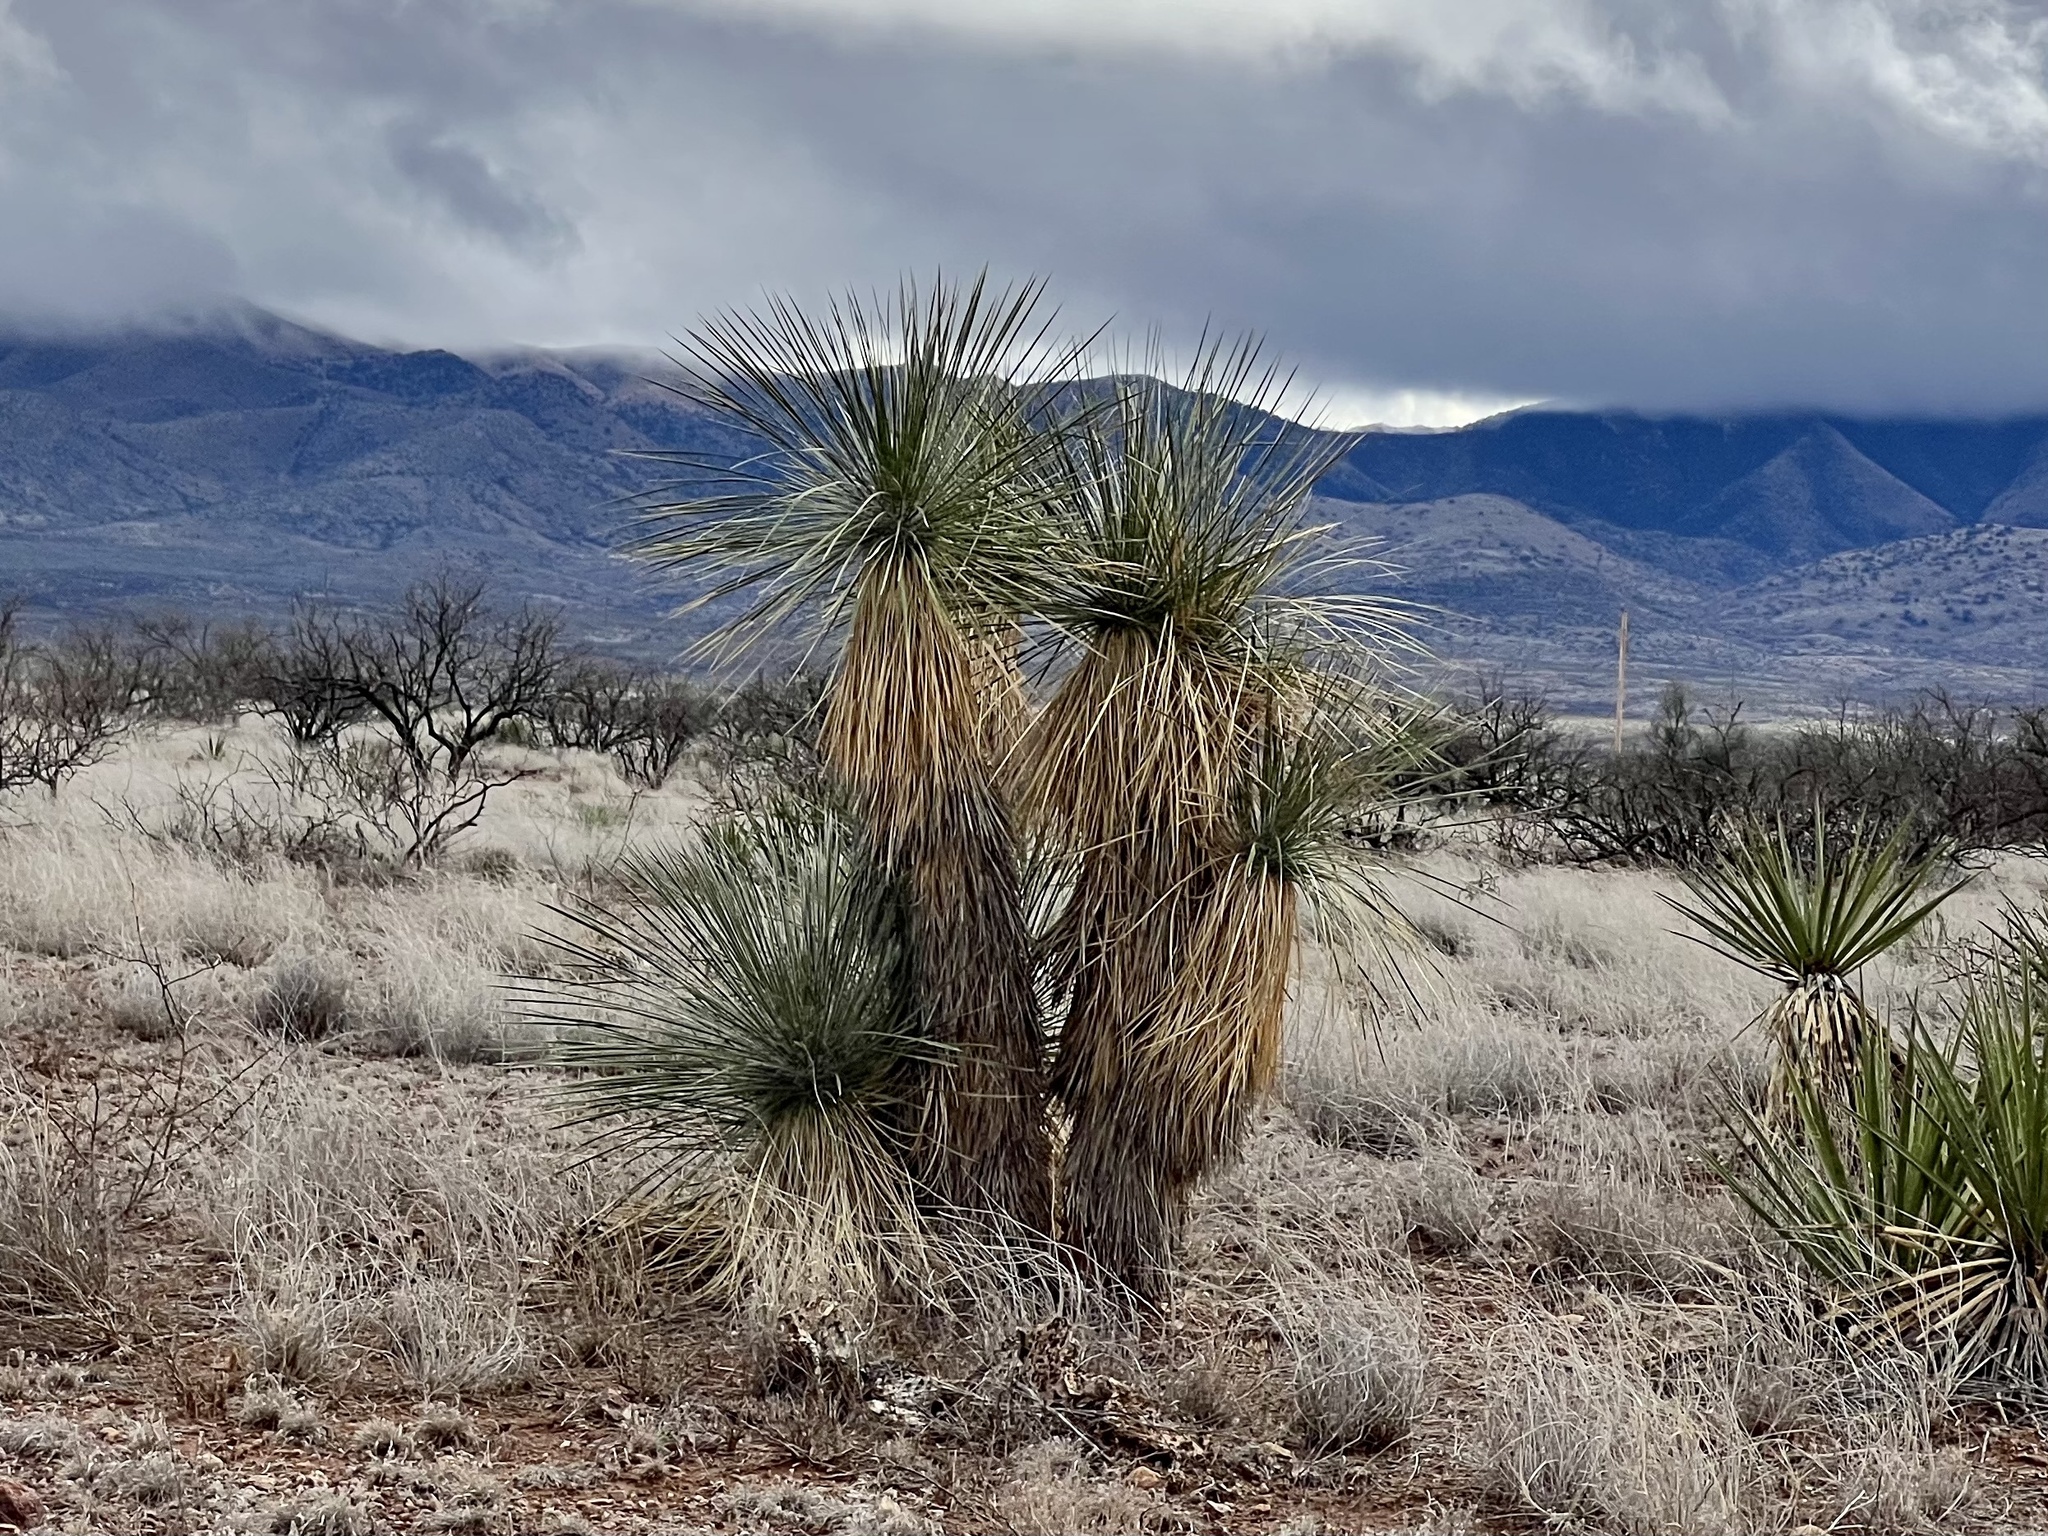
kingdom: Plantae
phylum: Tracheophyta
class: Liliopsida
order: Asparagales
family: Asparagaceae
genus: Yucca
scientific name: Yucca elata
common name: Palmella
